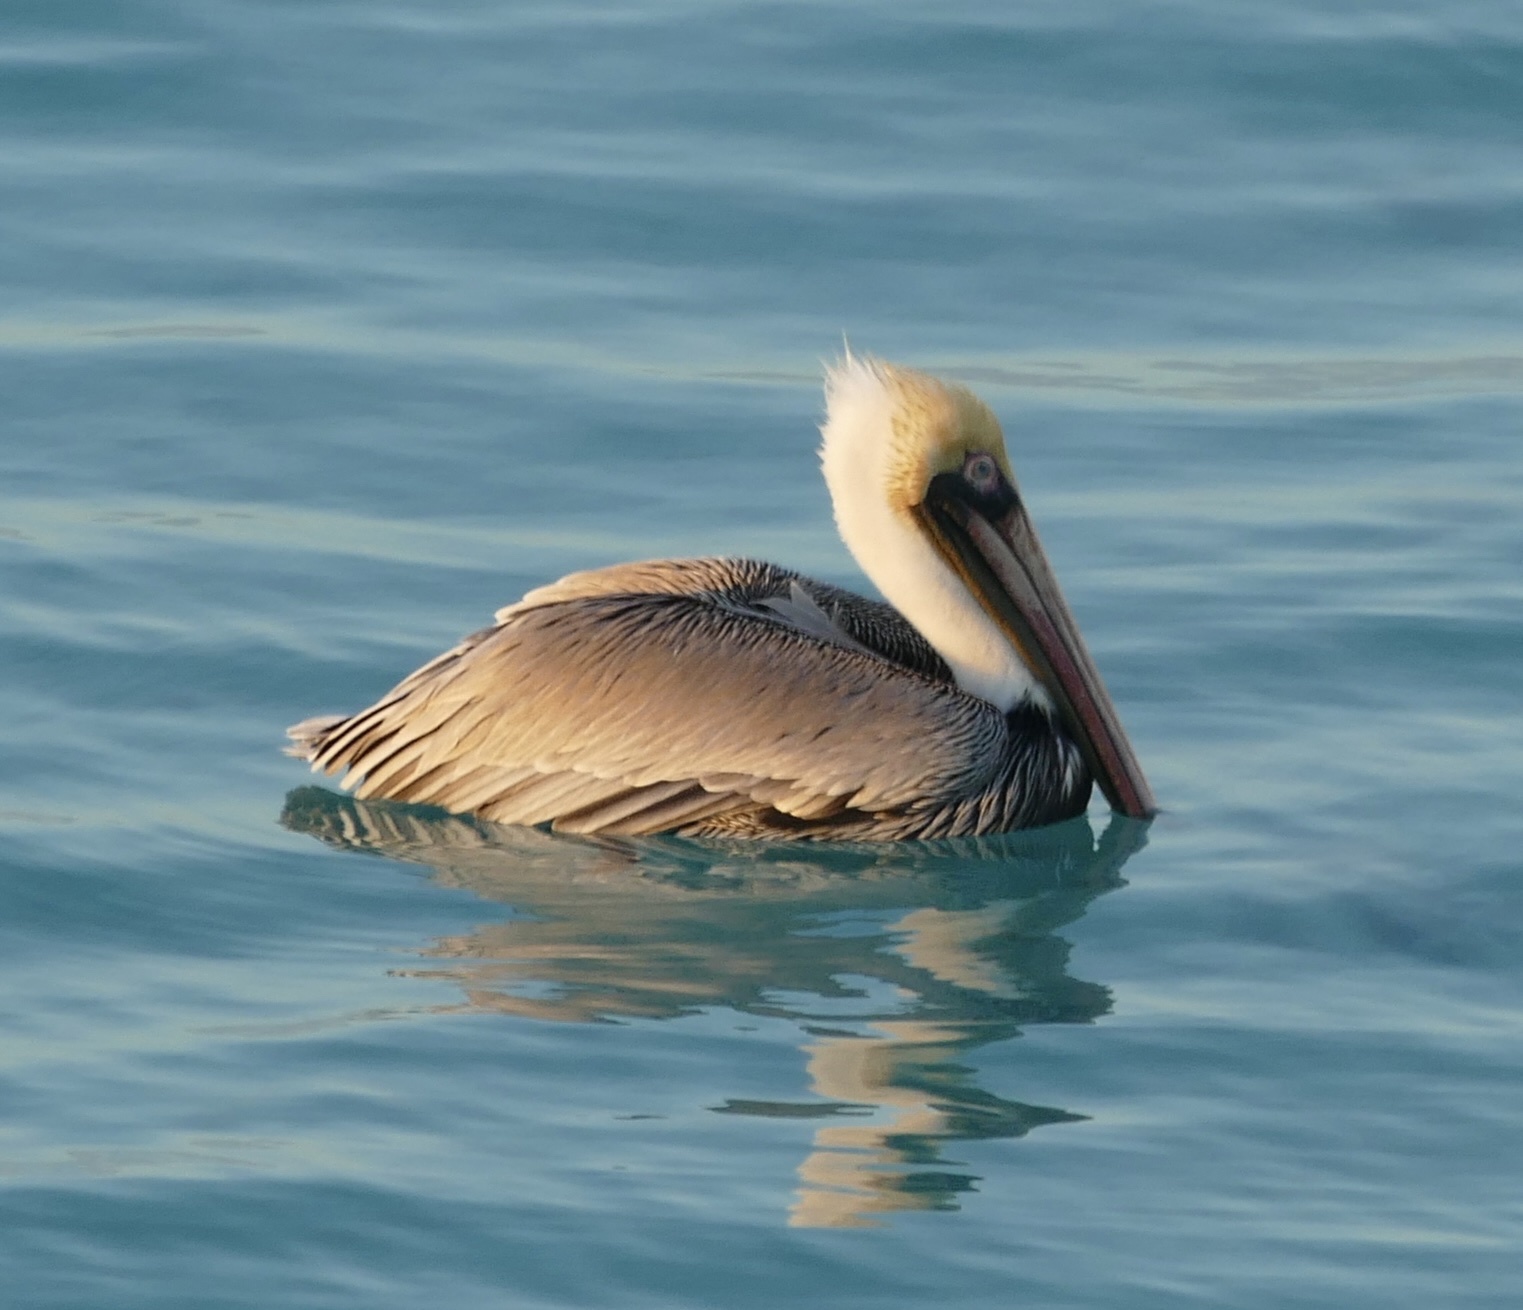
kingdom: Animalia
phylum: Chordata
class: Aves
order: Pelecaniformes
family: Pelecanidae
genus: Pelecanus
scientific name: Pelecanus occidentalis
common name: Brown pelican
